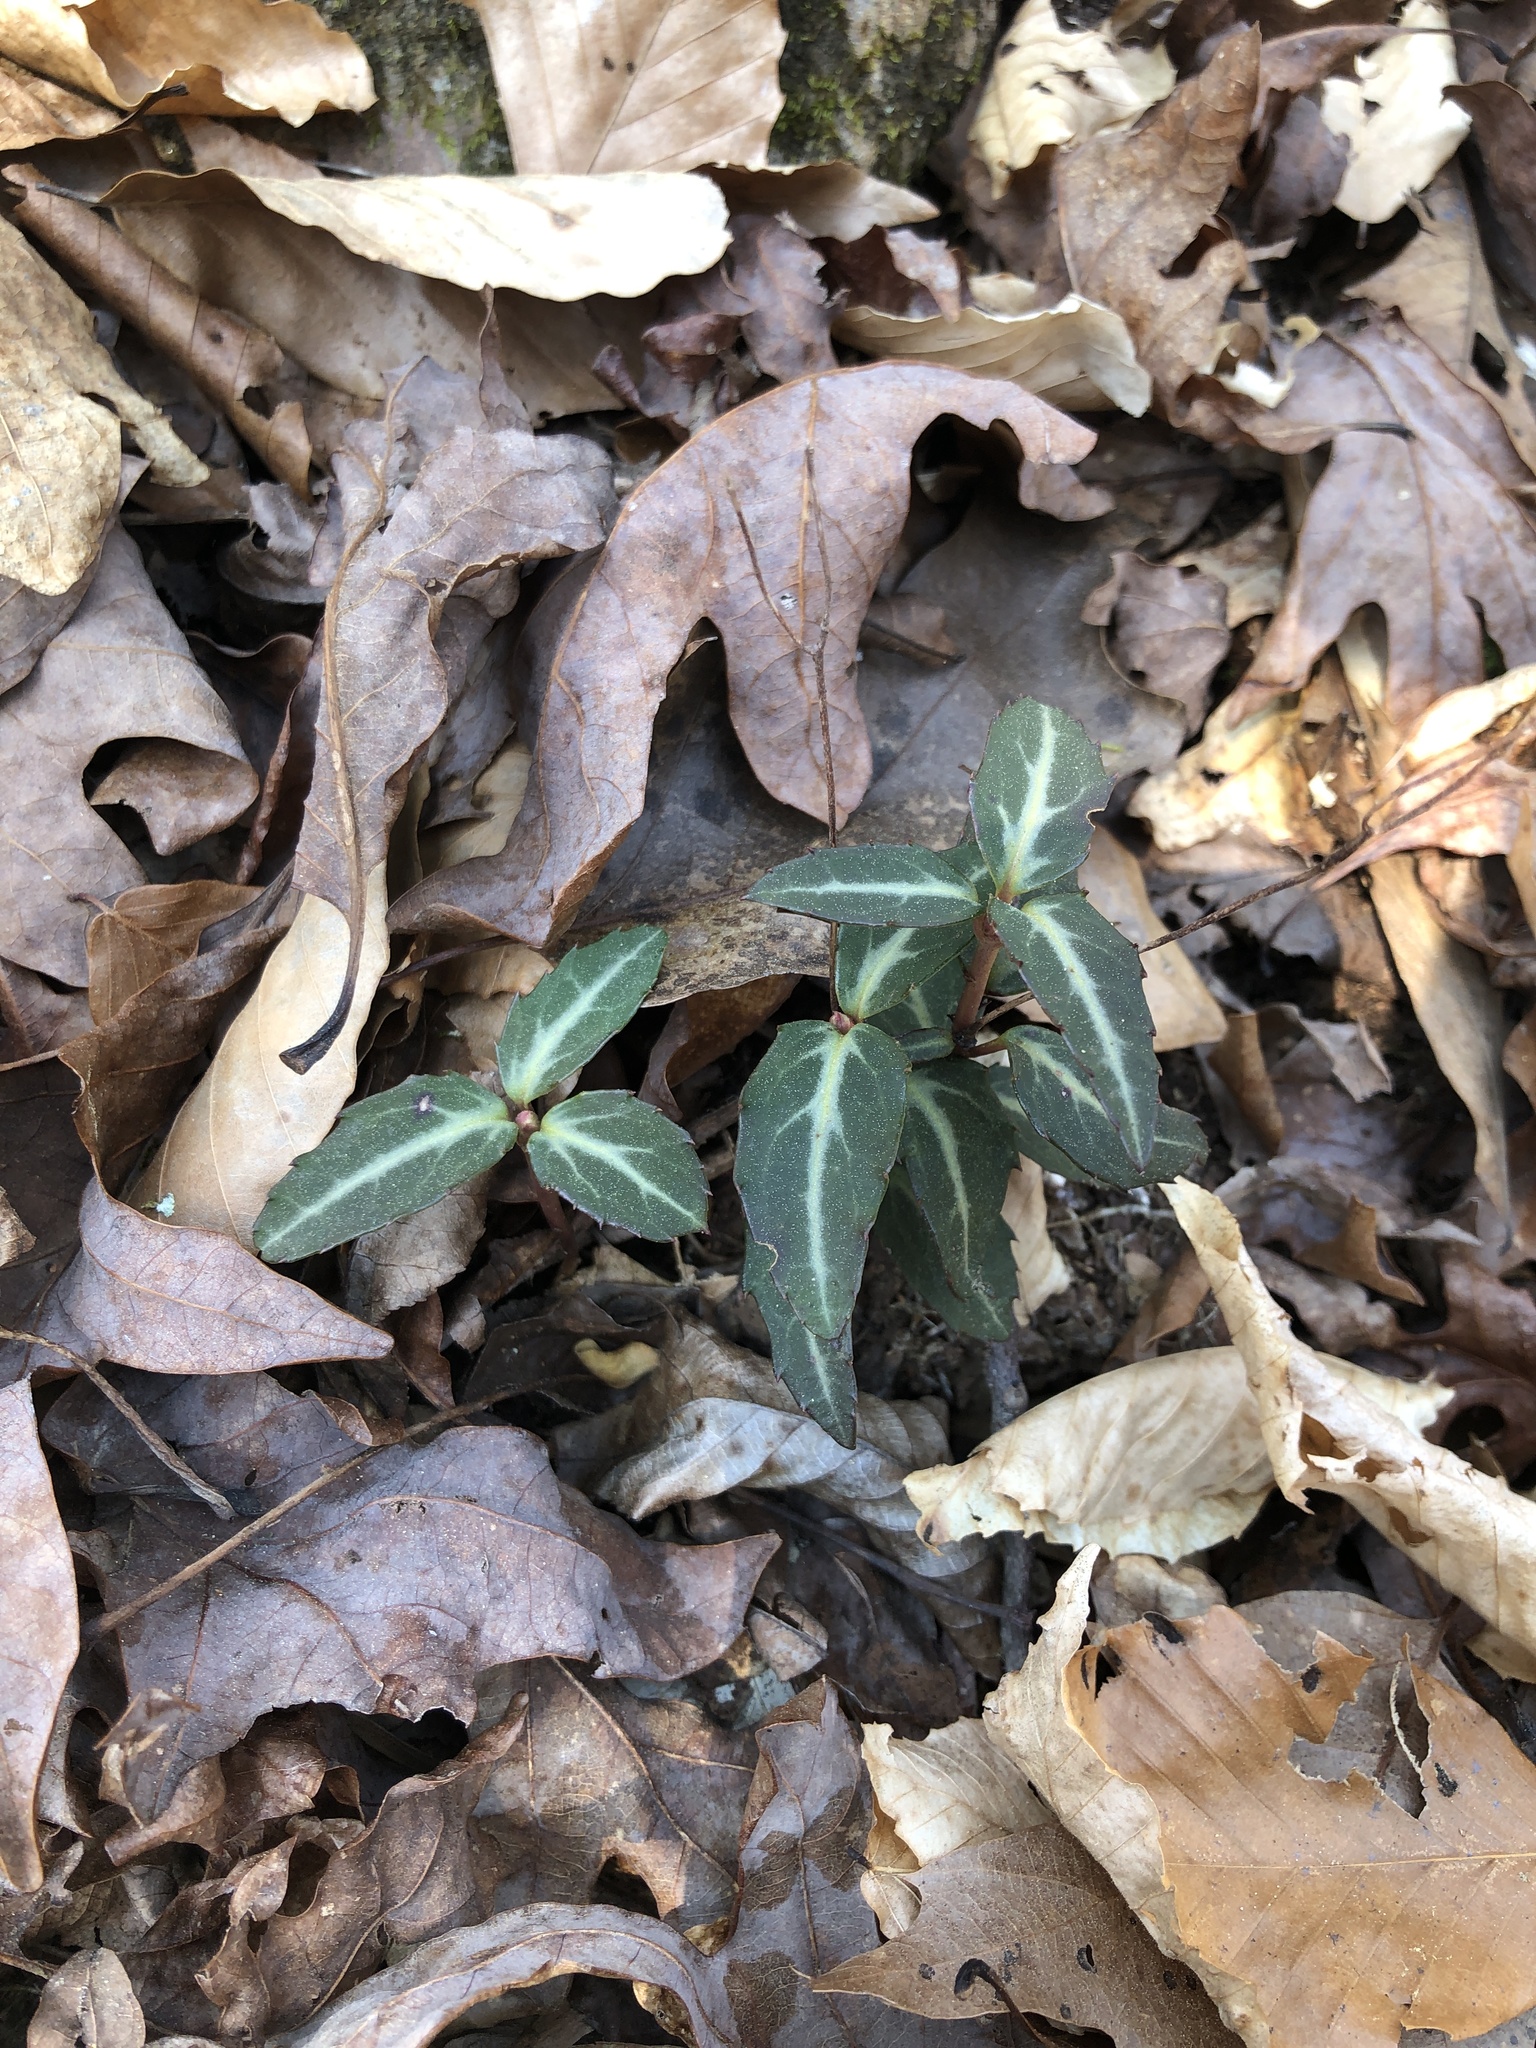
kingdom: Plantae
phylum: Tracheophyta
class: Magnoliopsida
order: Ericales
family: Ericaceae
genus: Chimaphila
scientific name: Chimaphila maculata
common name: Spotted pipsissewa
